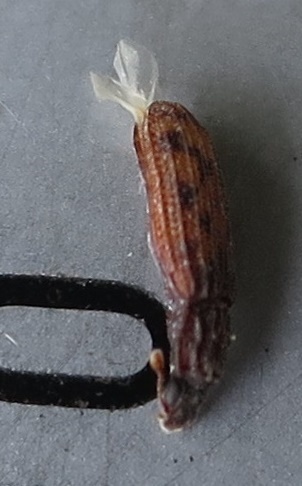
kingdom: Animalia
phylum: Arthropoda
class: Insecta
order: Coleoptera
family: Zopheridae
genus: Bitoma
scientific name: Bitoma insularis
